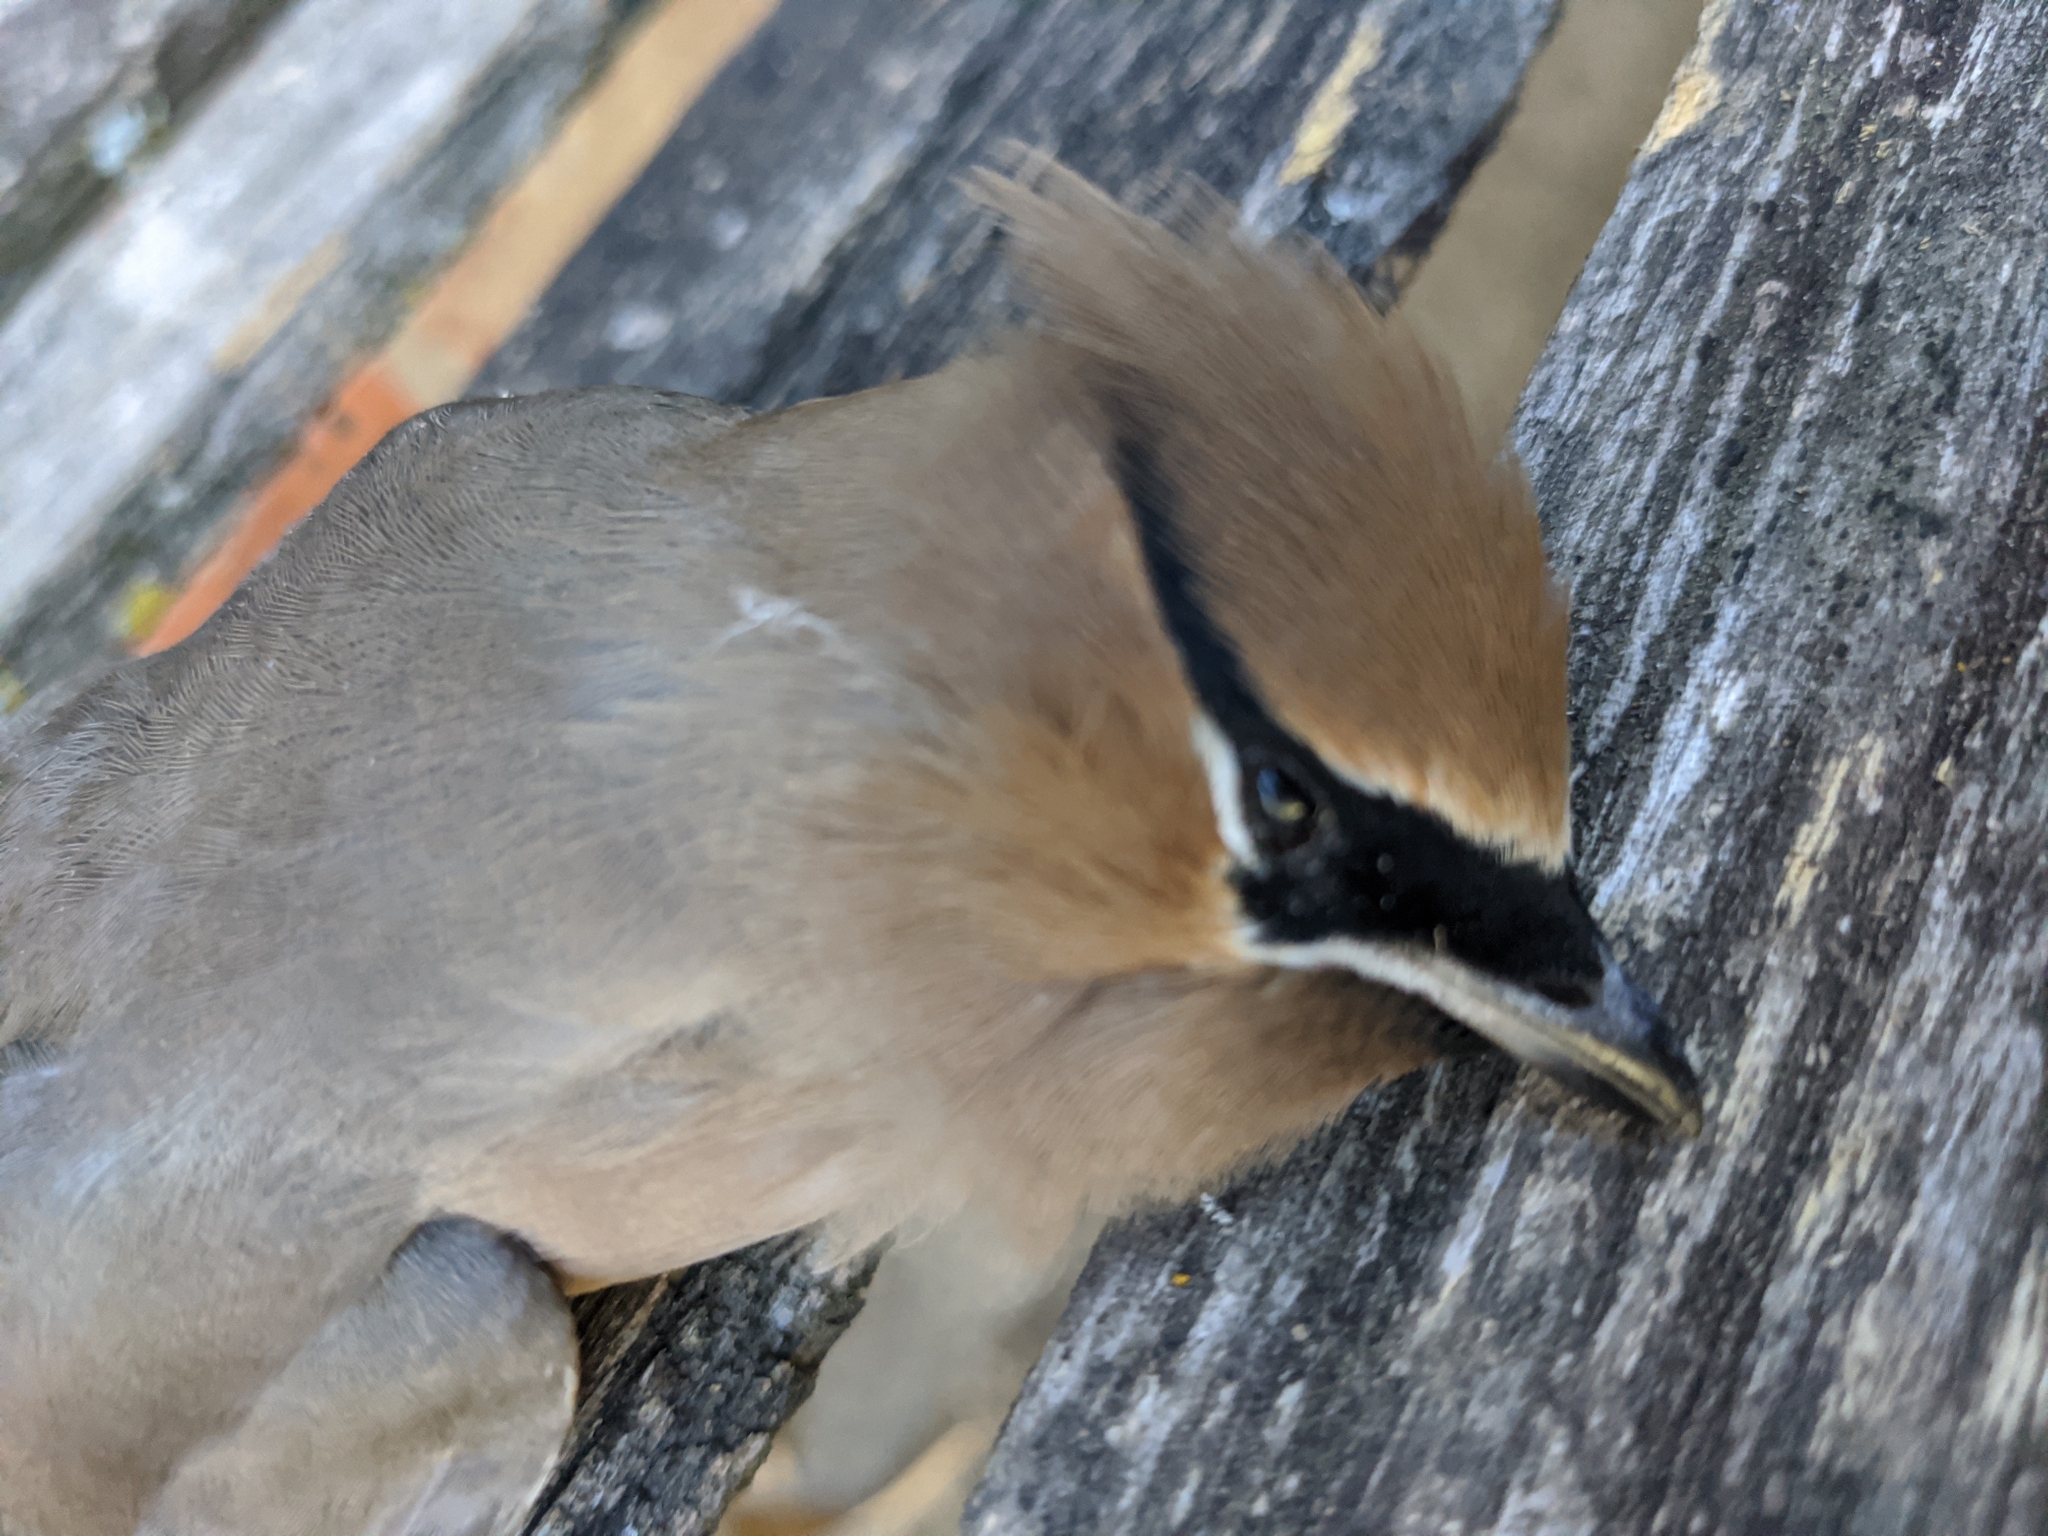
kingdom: Animalia
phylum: Chordata
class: Aves
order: Passeriformes
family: Bombycillidae
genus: Bombycilla
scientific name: Bombycilla cedrorum
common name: Cedar waxwing
